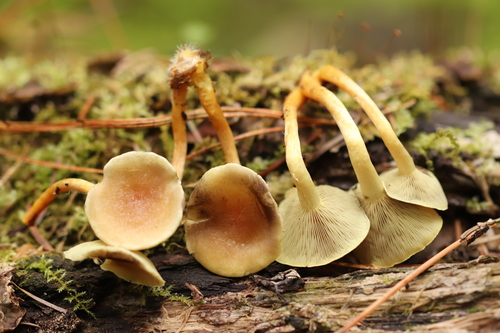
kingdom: Fungi
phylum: Basidiomycota
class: Agaricomycetes
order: Agaricales
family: Strophariaceae
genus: Hypholoma
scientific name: Hypholoma fasciculare
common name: Sulphur tuft
